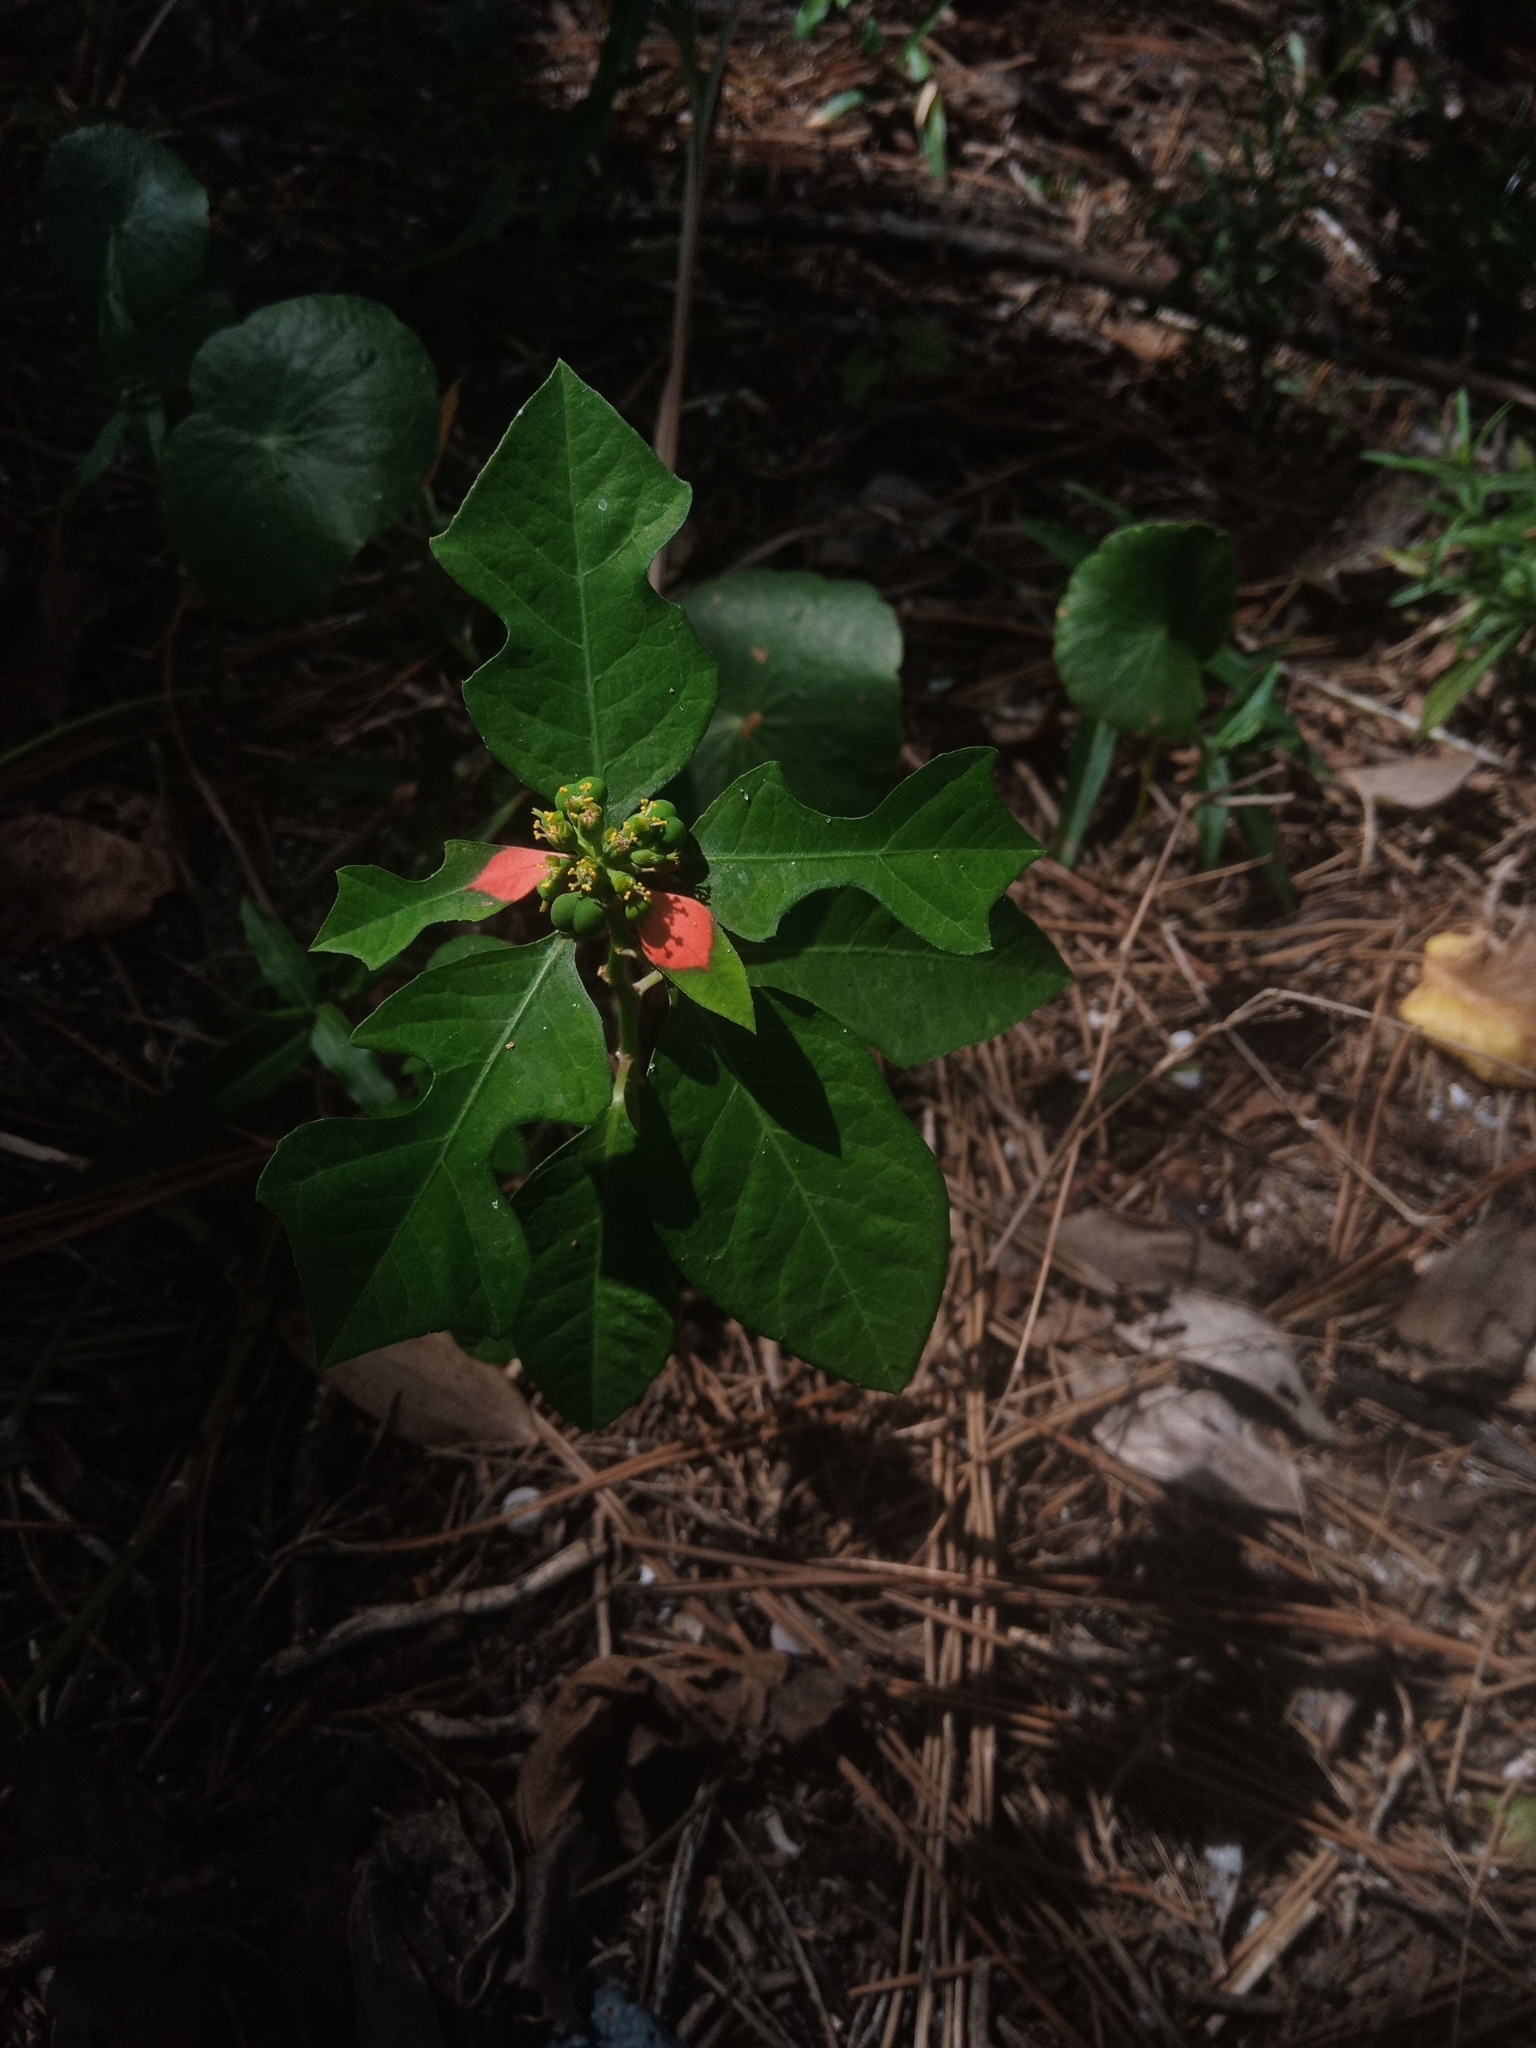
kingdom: Plantae
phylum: Tracheophyta
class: Magnoliopsida
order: Malpighiales
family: Euphorbiaceae
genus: Euphorbia
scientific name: Euphorbia heterophylla
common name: Mexican fireplant
